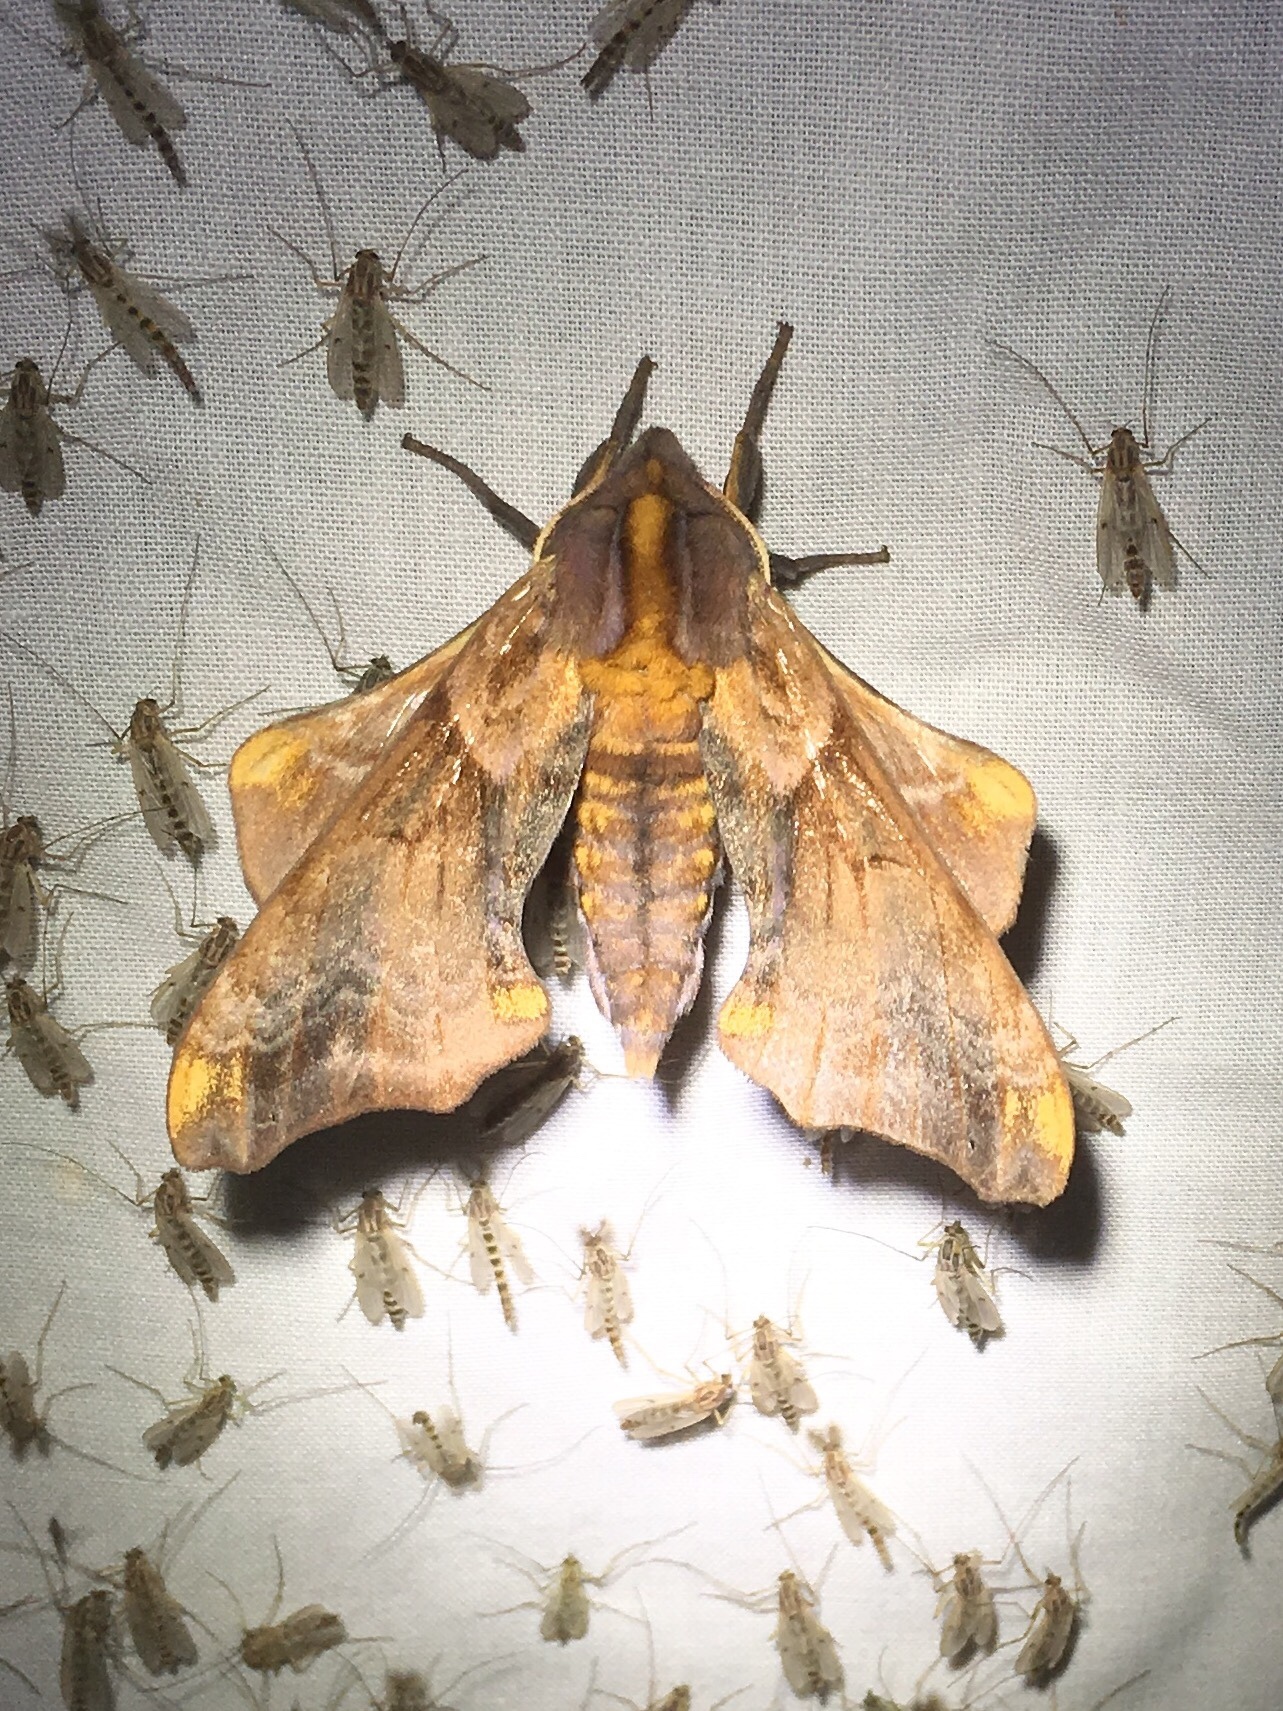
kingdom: Animalia
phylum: Arthropoda
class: Insecta
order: Lepidoptera
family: Sphingidae
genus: Paonias
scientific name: Paonias myops
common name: Small-eyed sphinx
